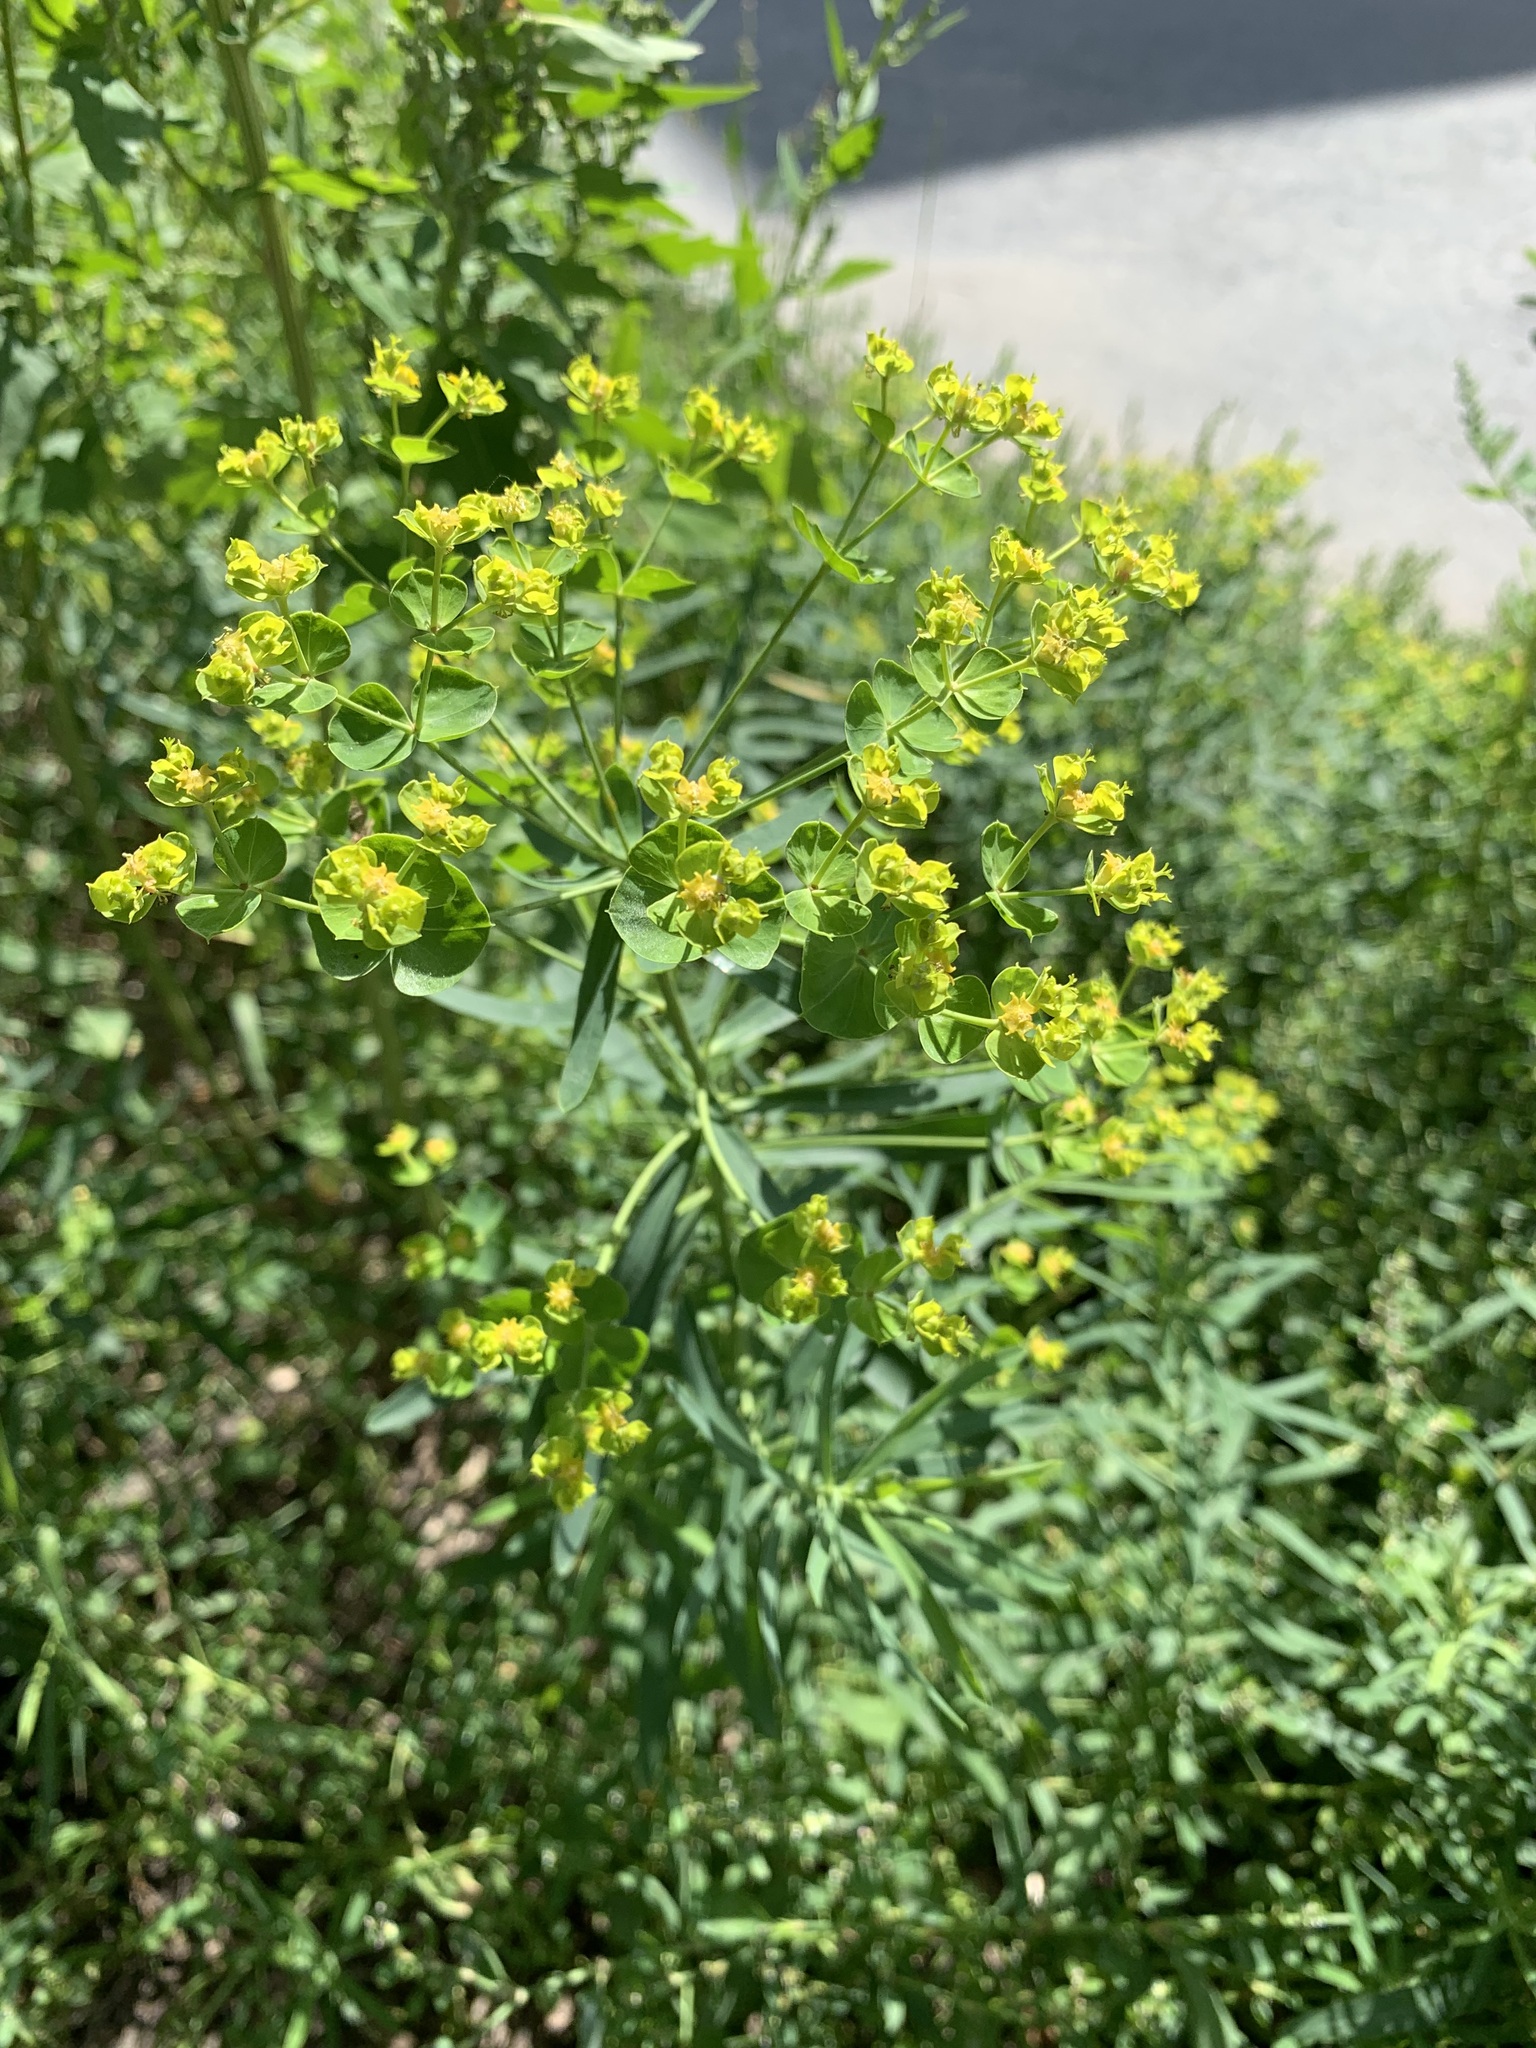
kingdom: Plantae
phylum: Tracheophyta
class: Magnoliopsida
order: Malpighiales
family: Euphorbiaceae
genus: Euphorbia
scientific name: Euphorbia virgata
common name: Leafy spurge
